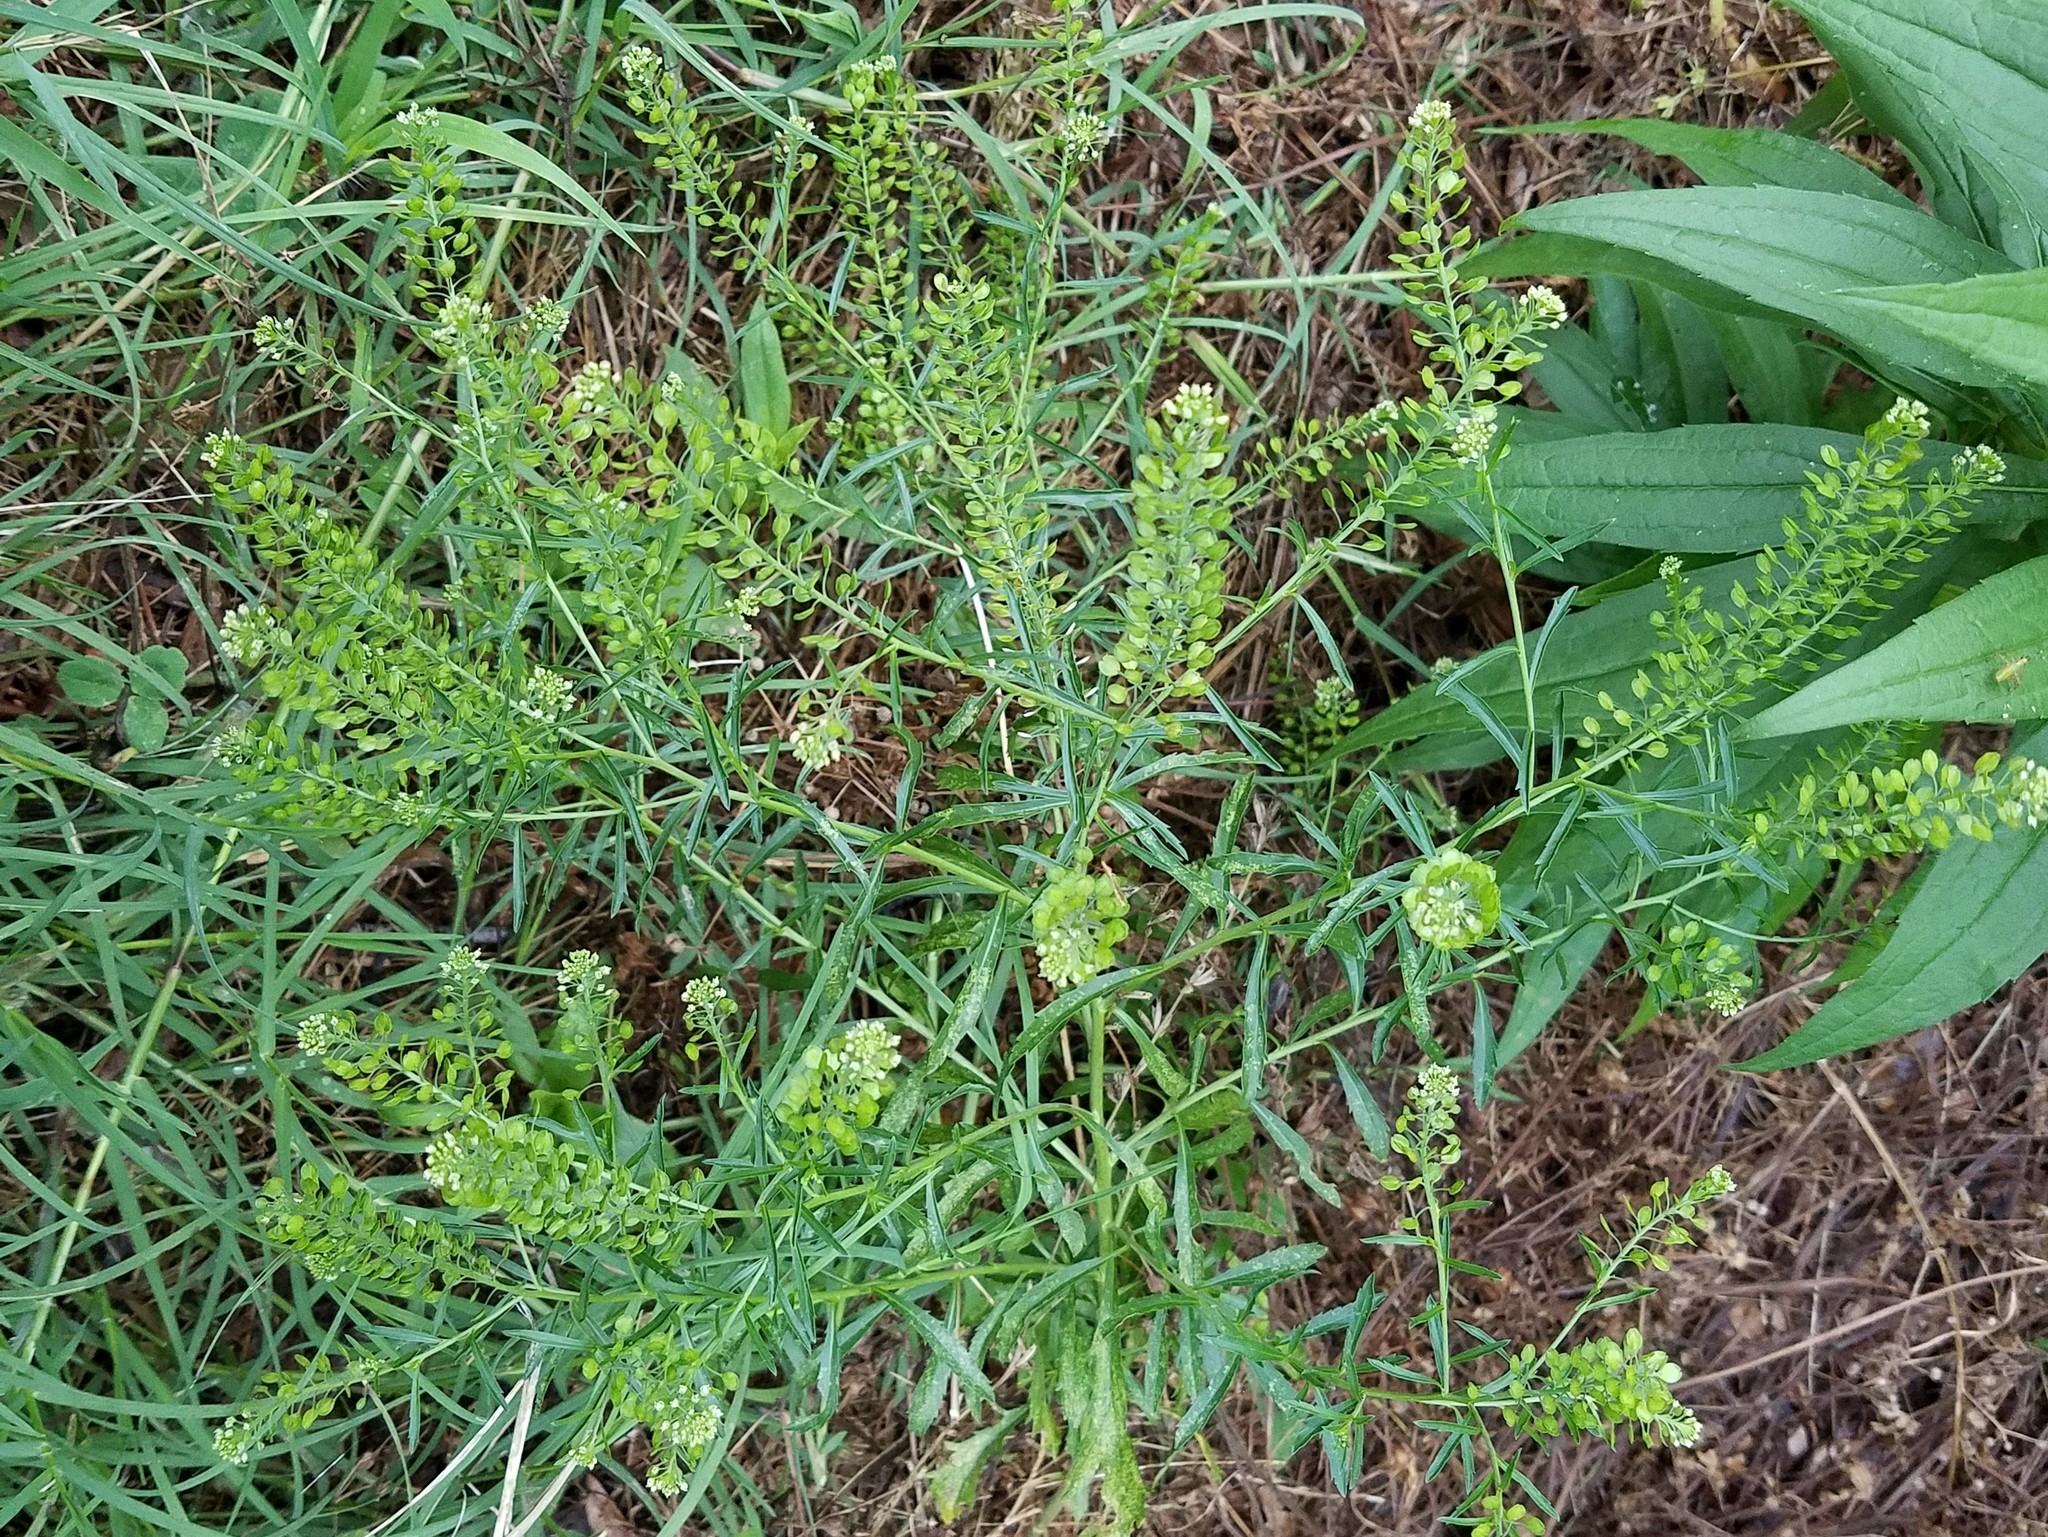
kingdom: Plantae
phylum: Tracheophyta
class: Magnoliopsida
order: Brassicales
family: Brassicaceae
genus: Lepidium
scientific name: Lepidium virginicum
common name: Least pepperwort
